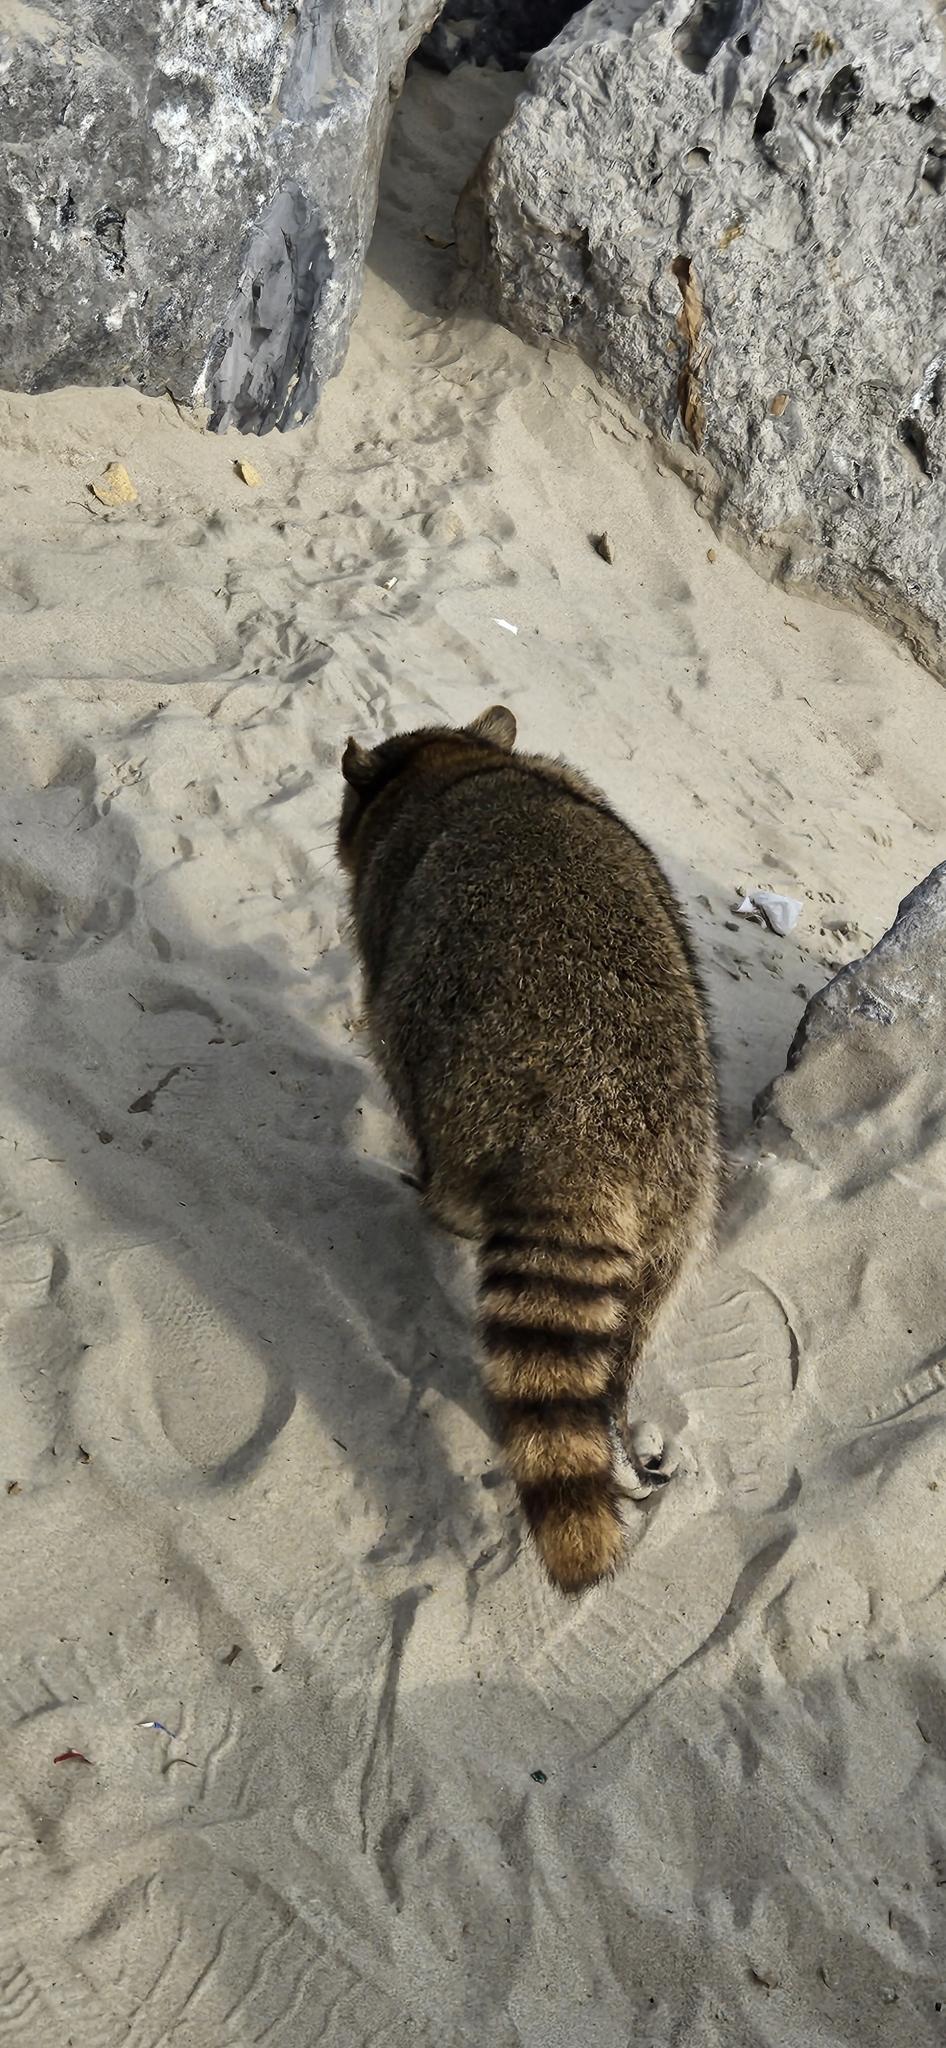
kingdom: Animalia
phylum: Chordata
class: Mammalia
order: Carnivora
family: Procyonidae
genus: Procyon
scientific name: Procyon lotor
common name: Raccoon
